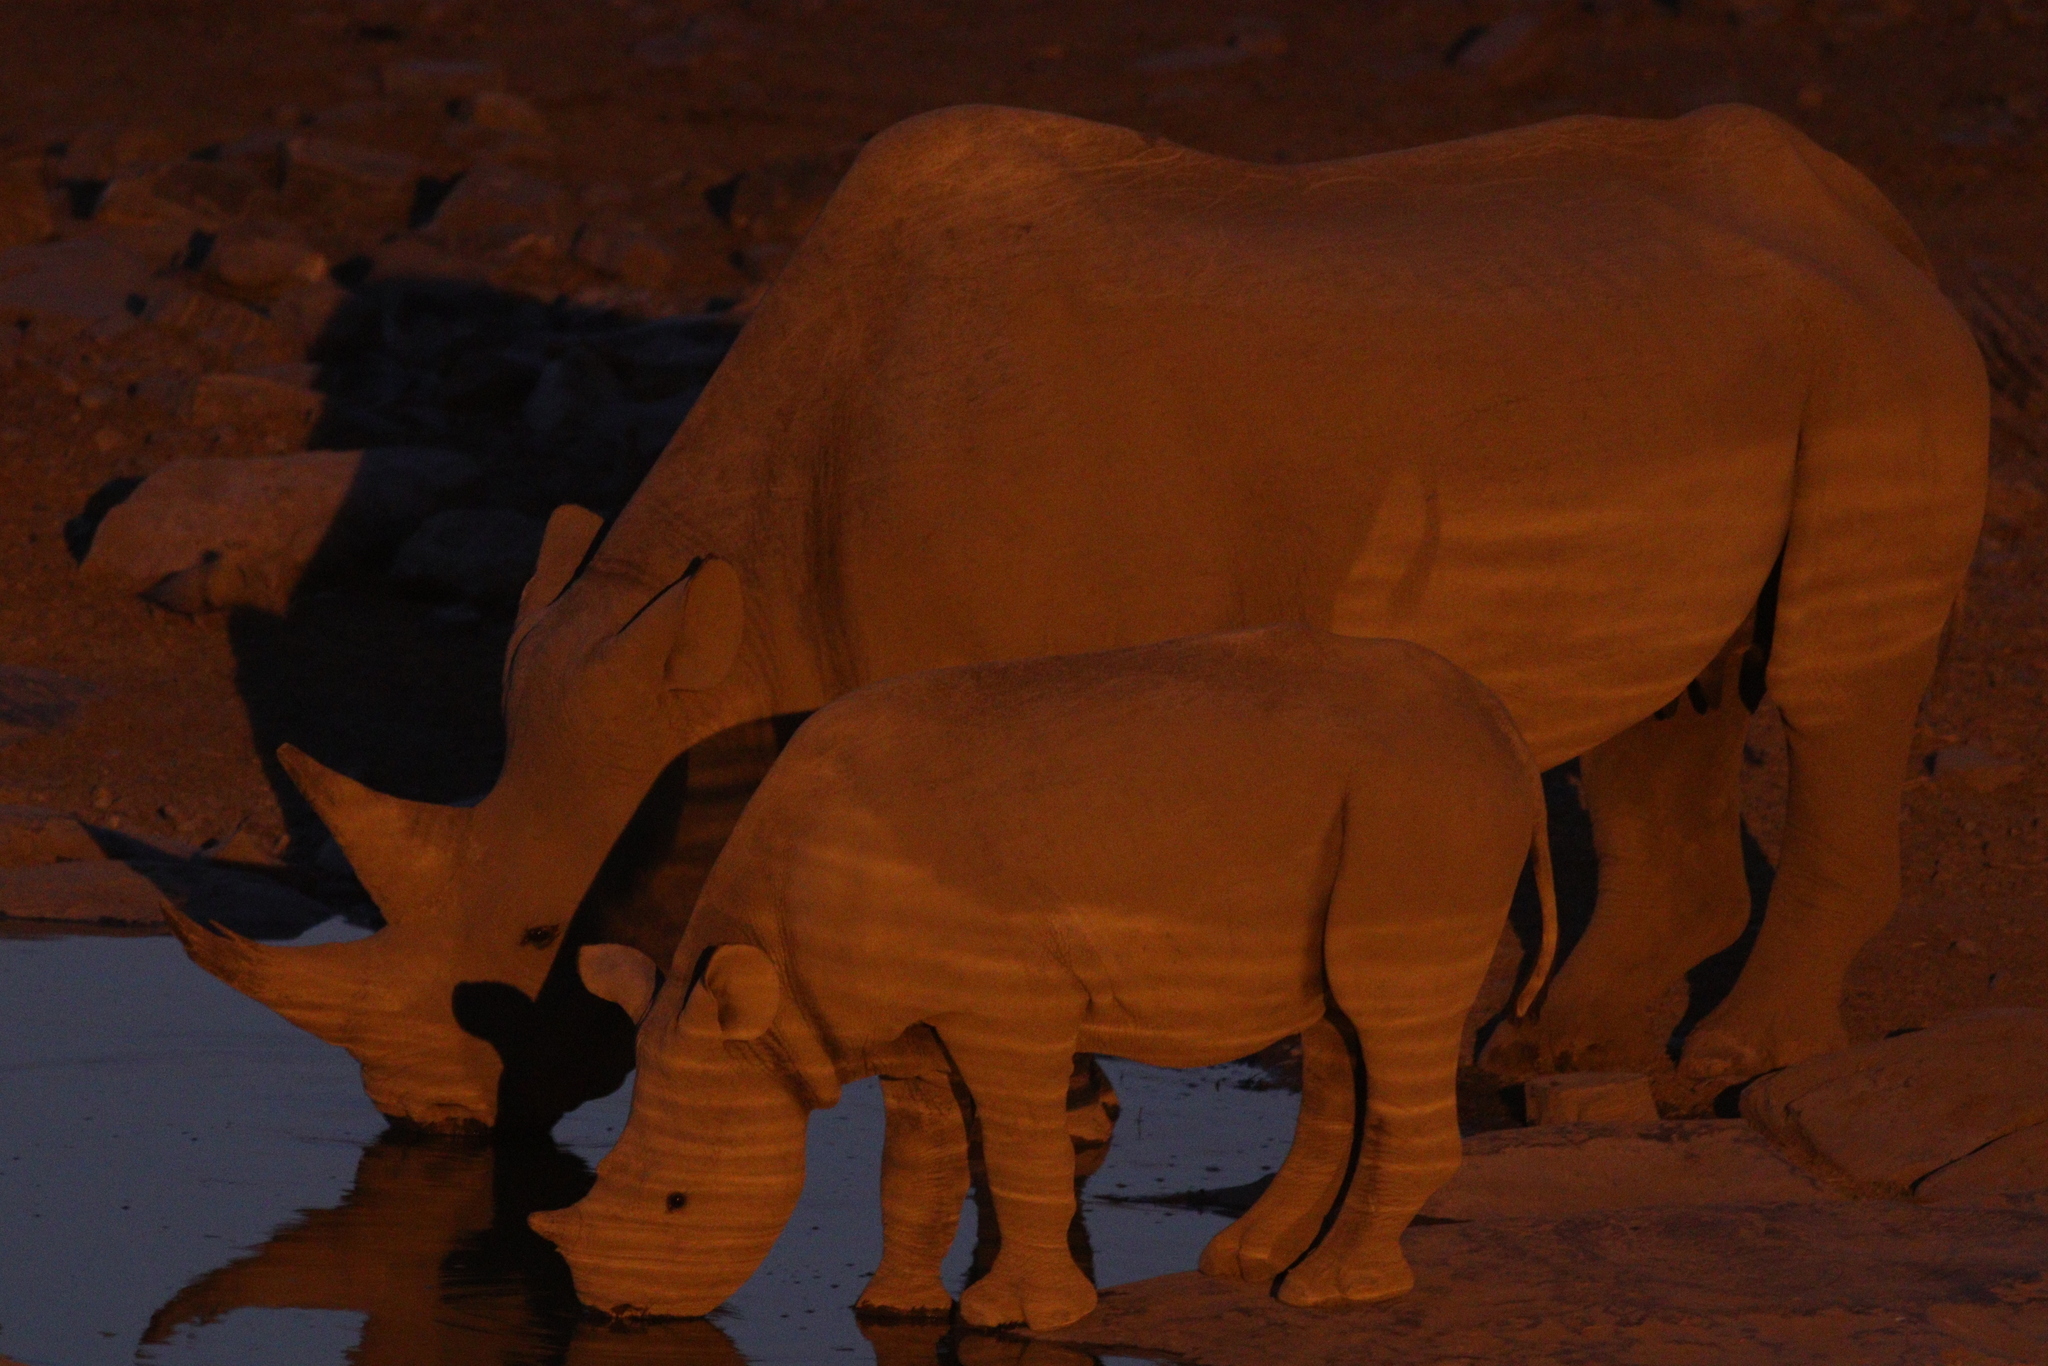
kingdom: Animalia
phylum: Chordata
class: Mammalia
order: Perissodactyla
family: Rhinocerotidae
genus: Diceros
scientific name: Diceros bicornis
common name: Black rhinoceros
